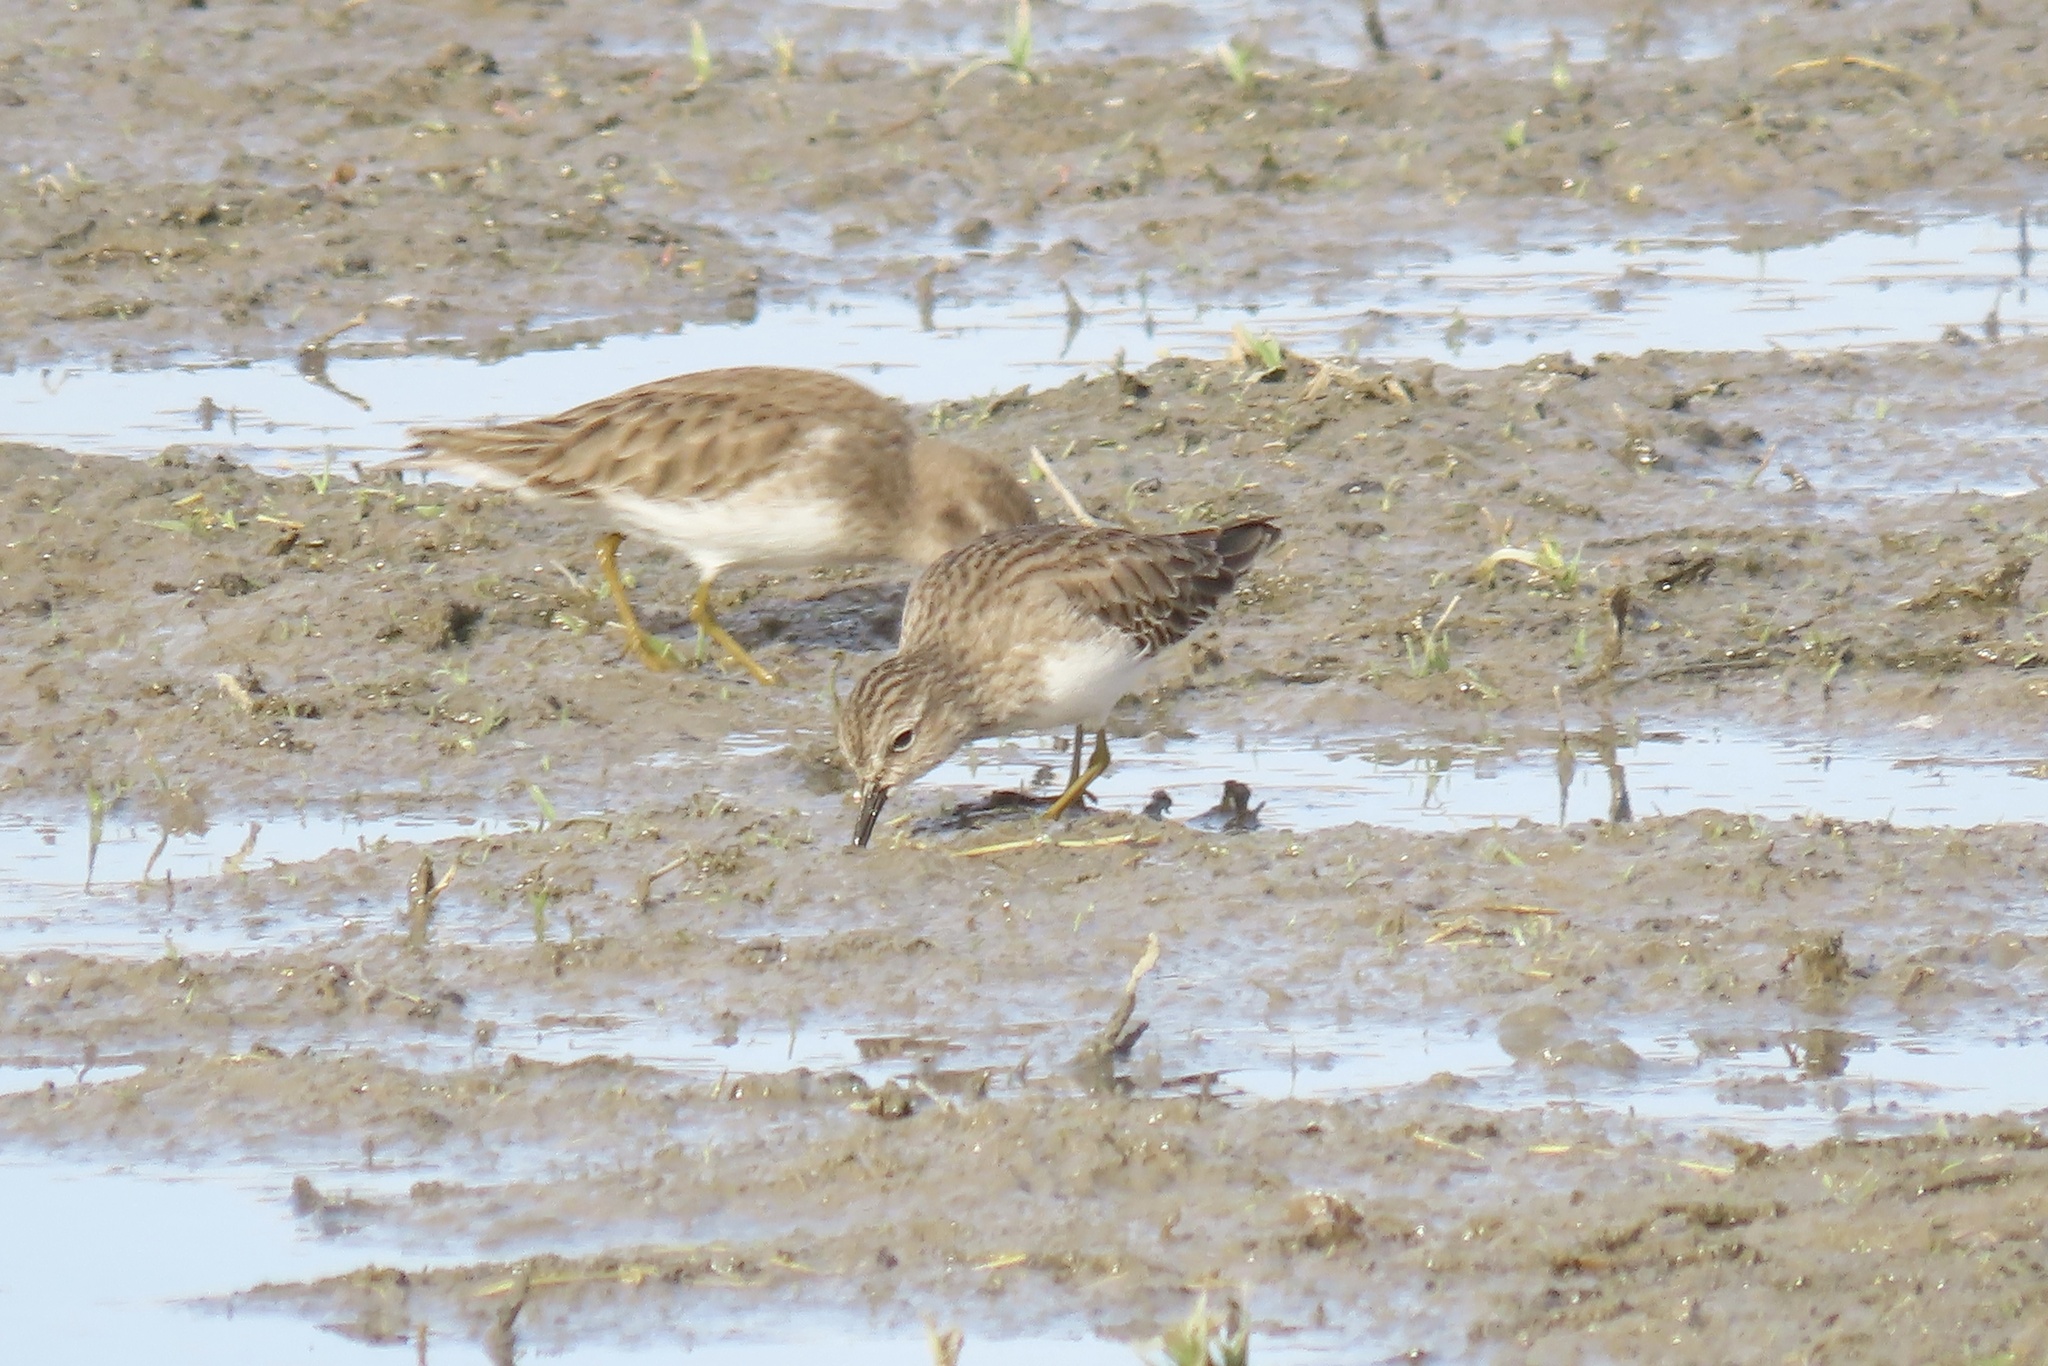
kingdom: Animalia
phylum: Chordata
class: Aves
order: Charadriiformes
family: Scolopacidae
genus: Calidris
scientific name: Calidris minutilla
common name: Least sandpiper
